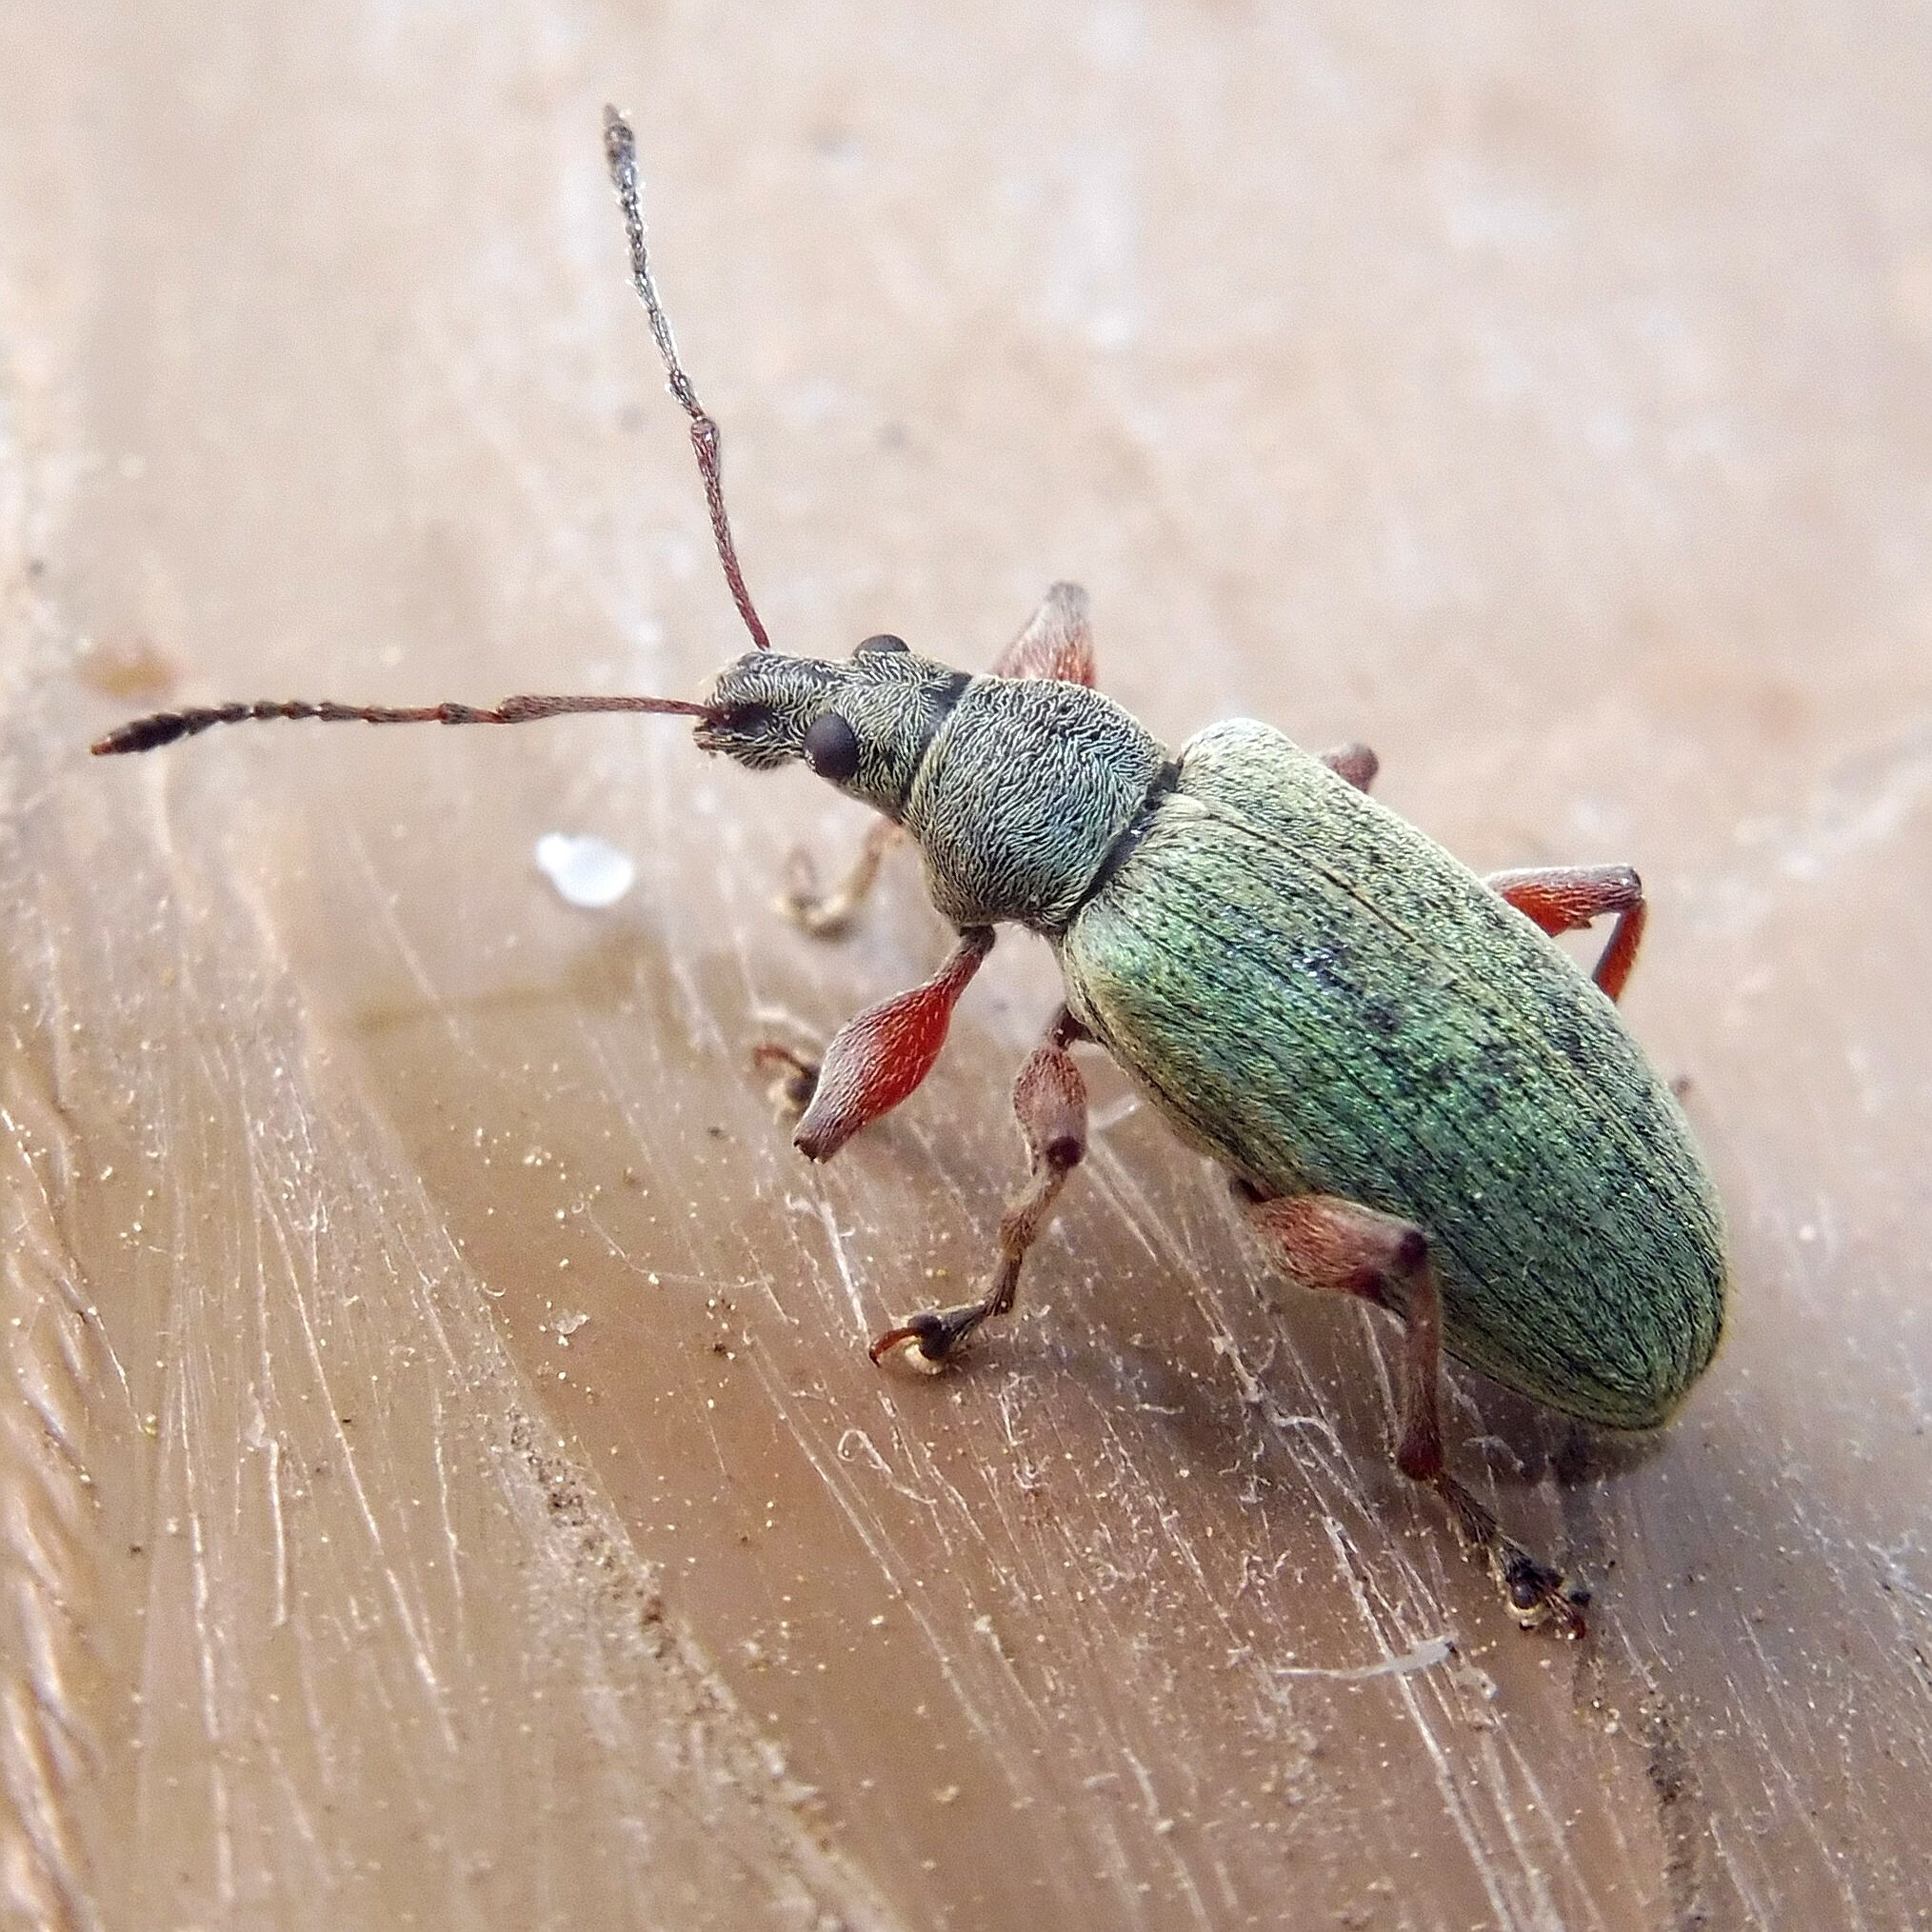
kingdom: Animalia
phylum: Arthropoda
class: Insecta
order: Coleoptera
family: Curculionidae
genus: Phyllobius
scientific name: Phyllobius glaucus
